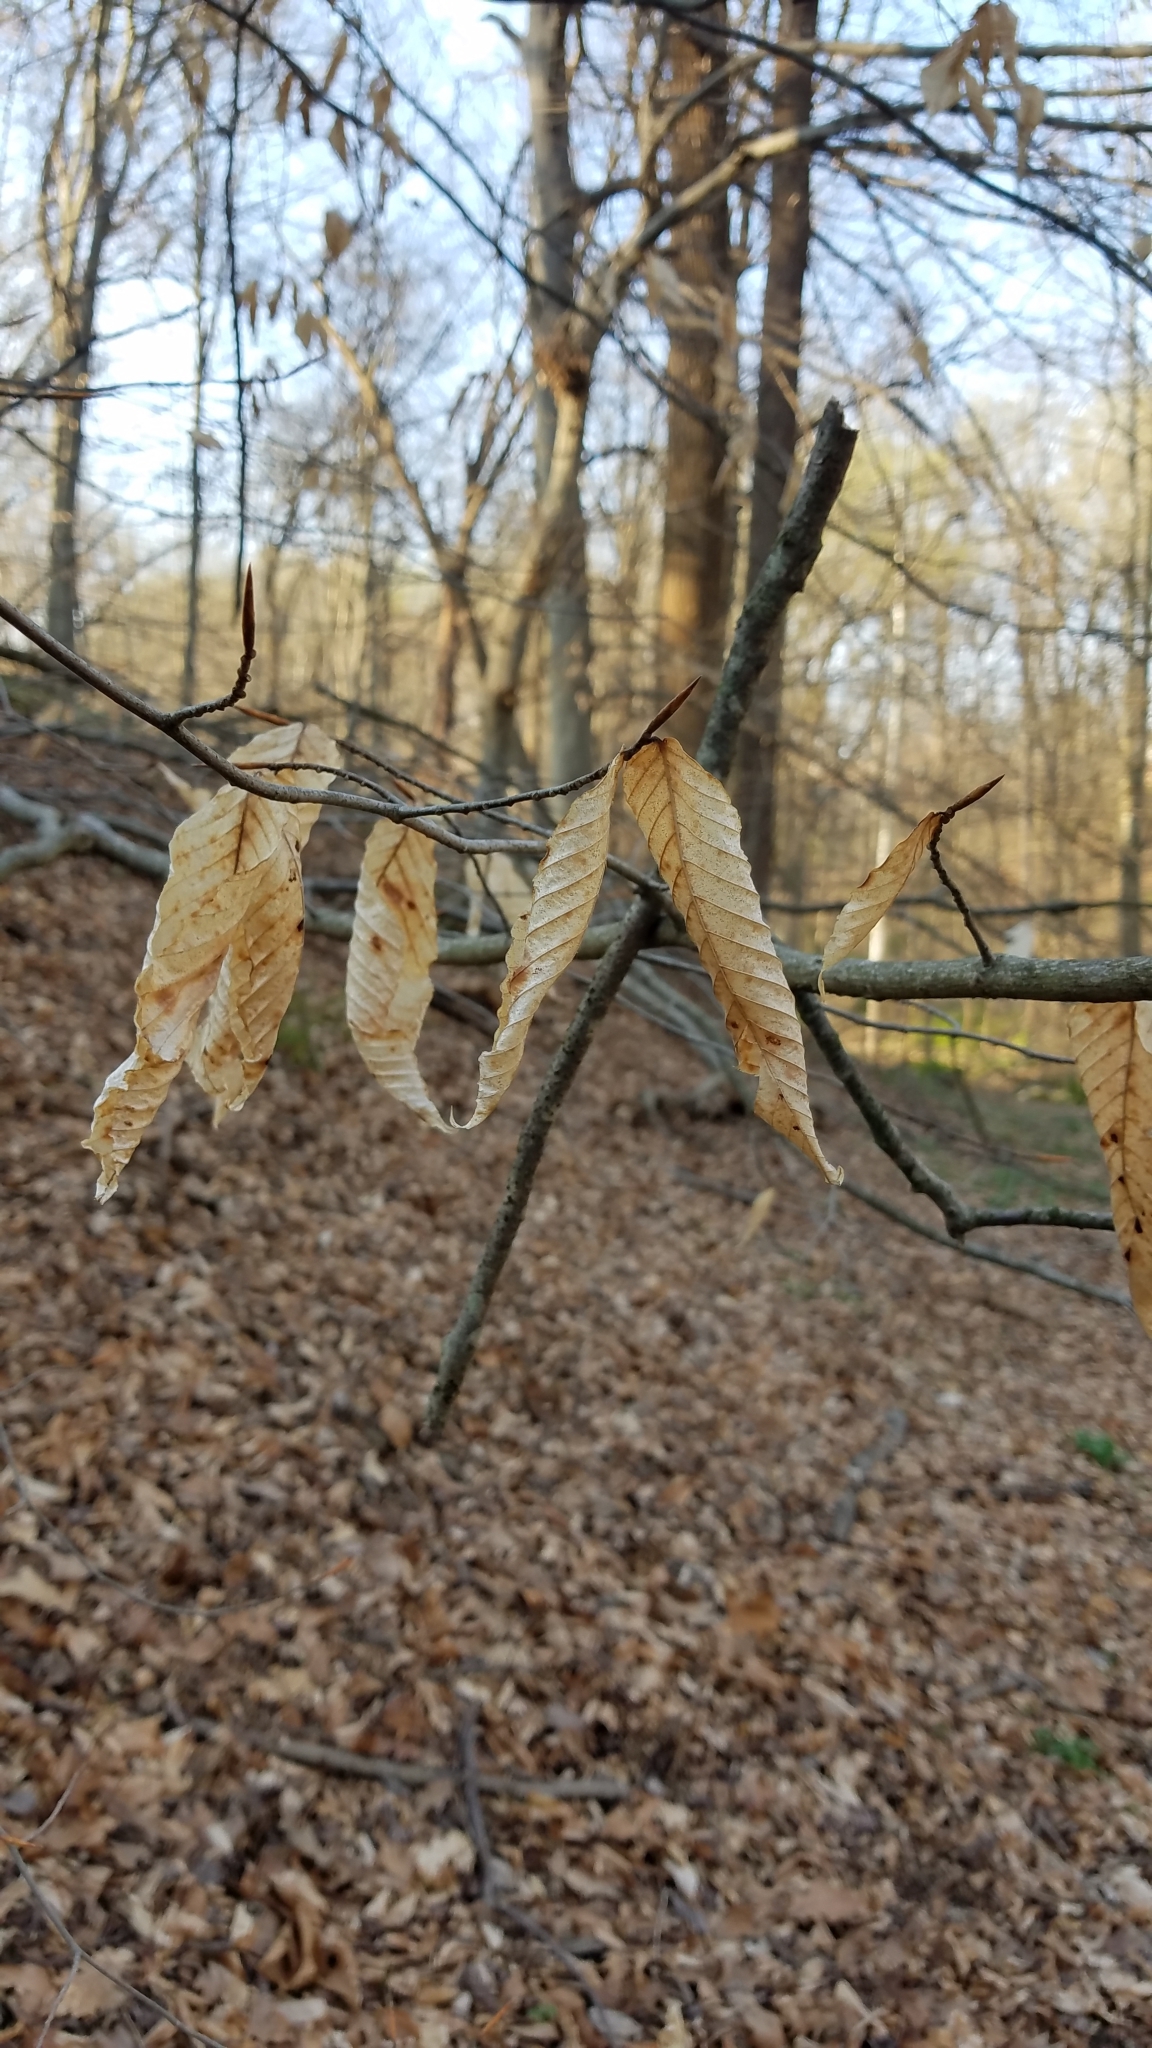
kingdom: Plantae
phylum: Tracheophyta
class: Magnoliopsida
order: Fagales
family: Fagaceae
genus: Fagus
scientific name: Fagus grandifolia
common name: American beech
